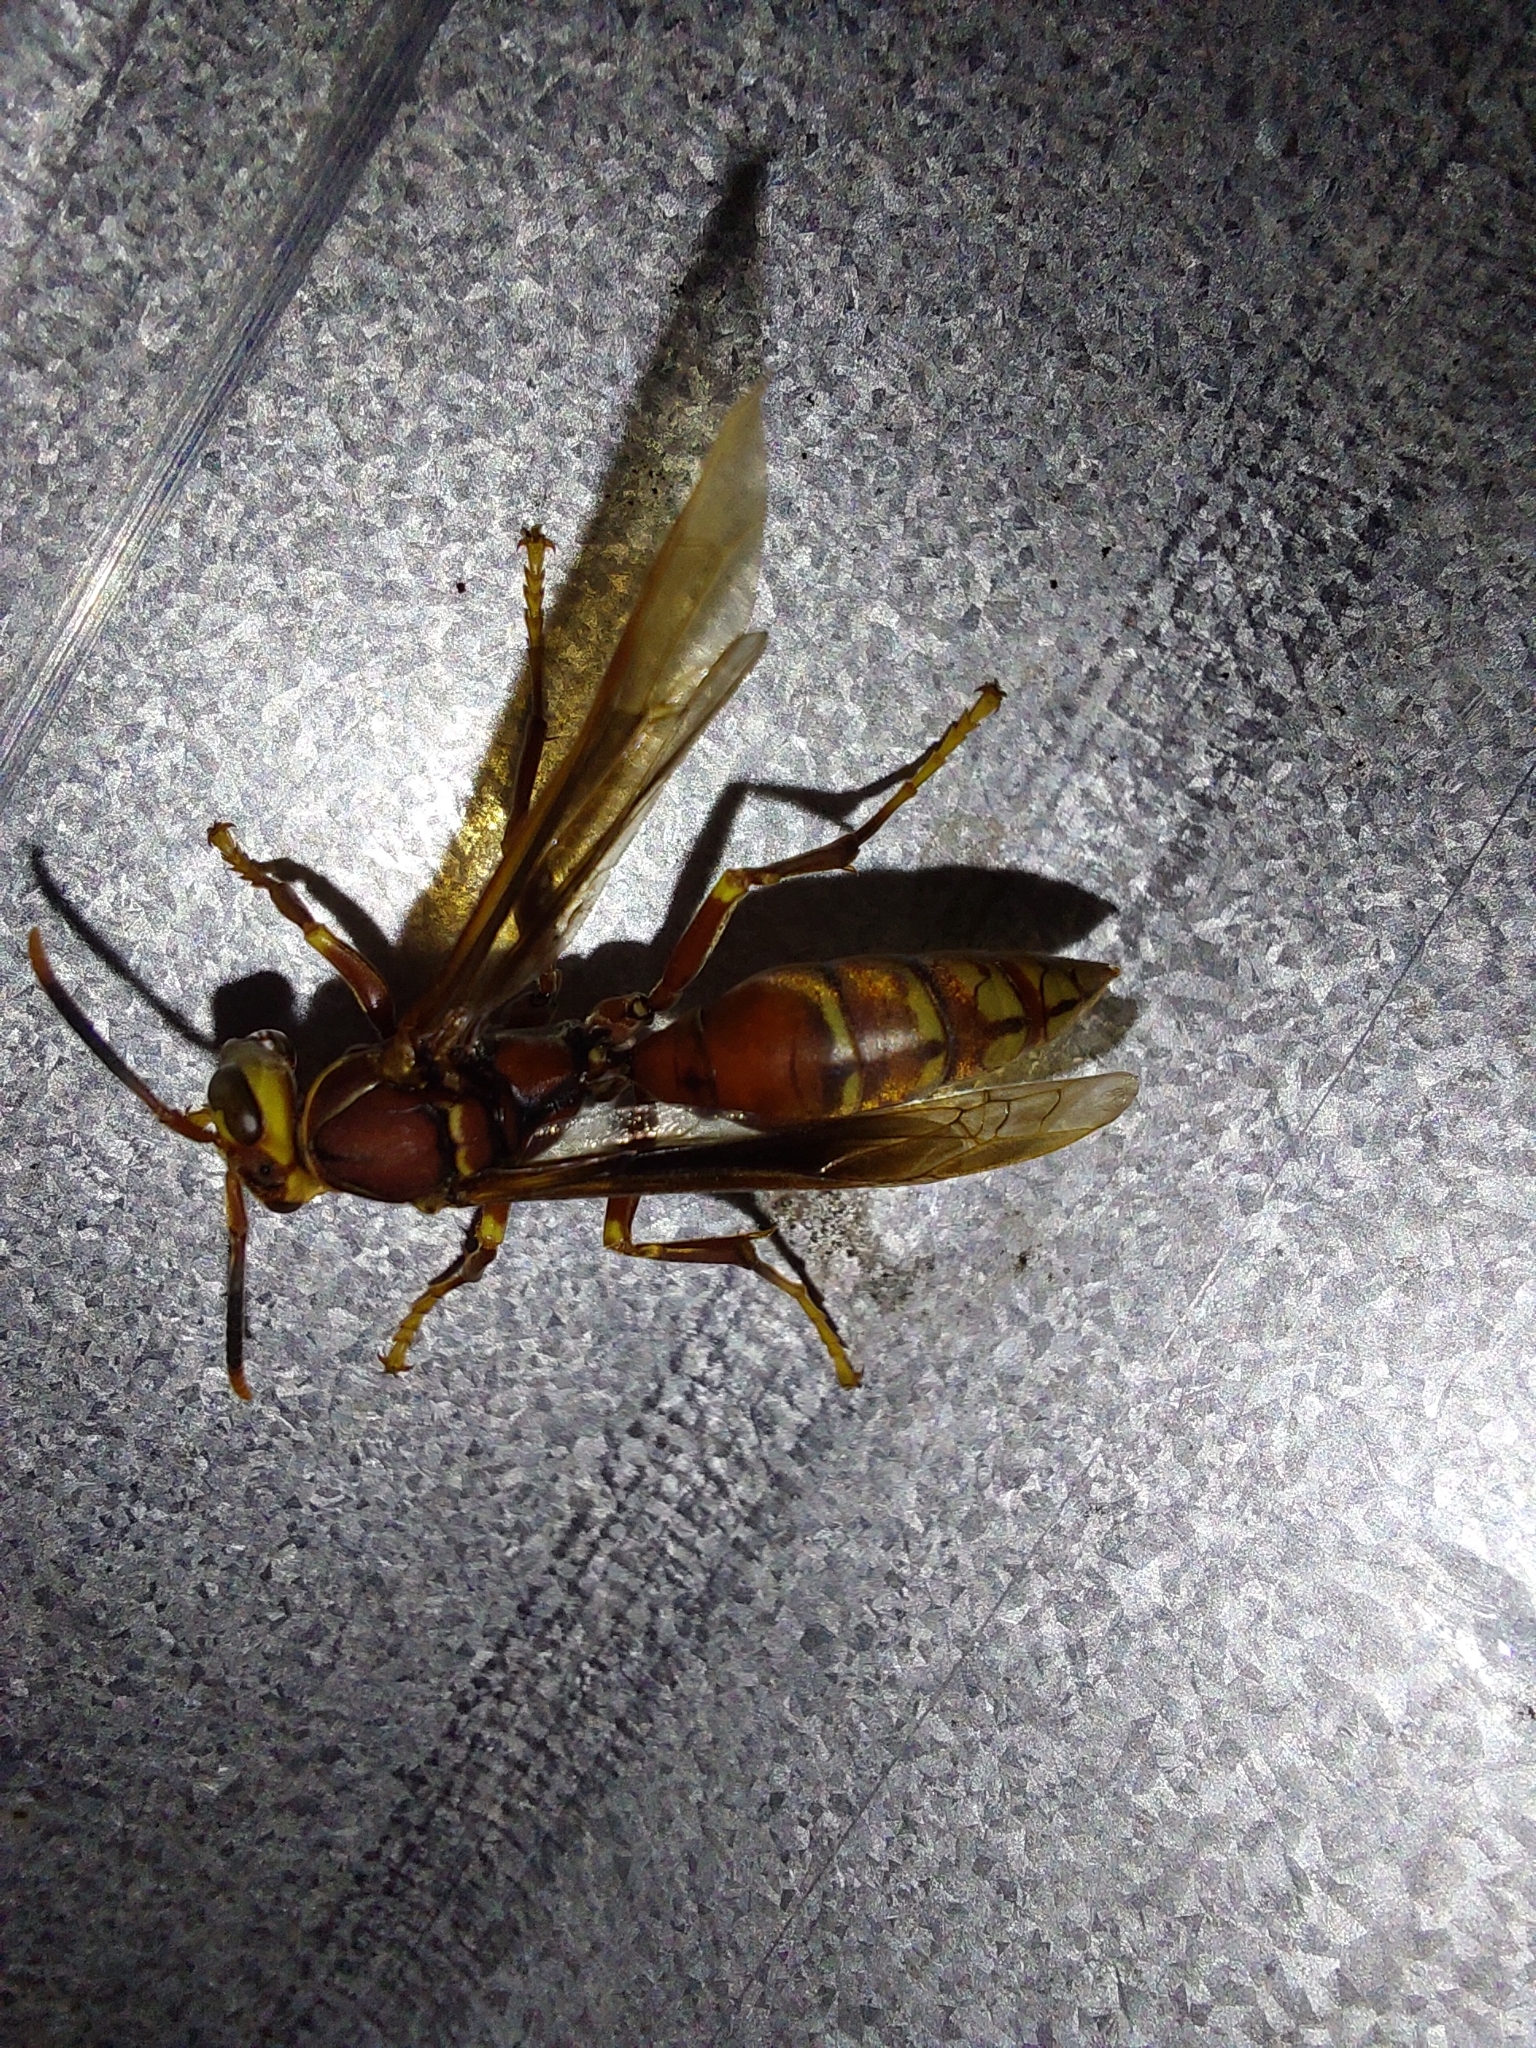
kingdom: Animalia
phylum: Arthropoda
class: Insecta
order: Hymenoptera
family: Eumenidae
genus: Polistes
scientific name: Polistes cavapyta
